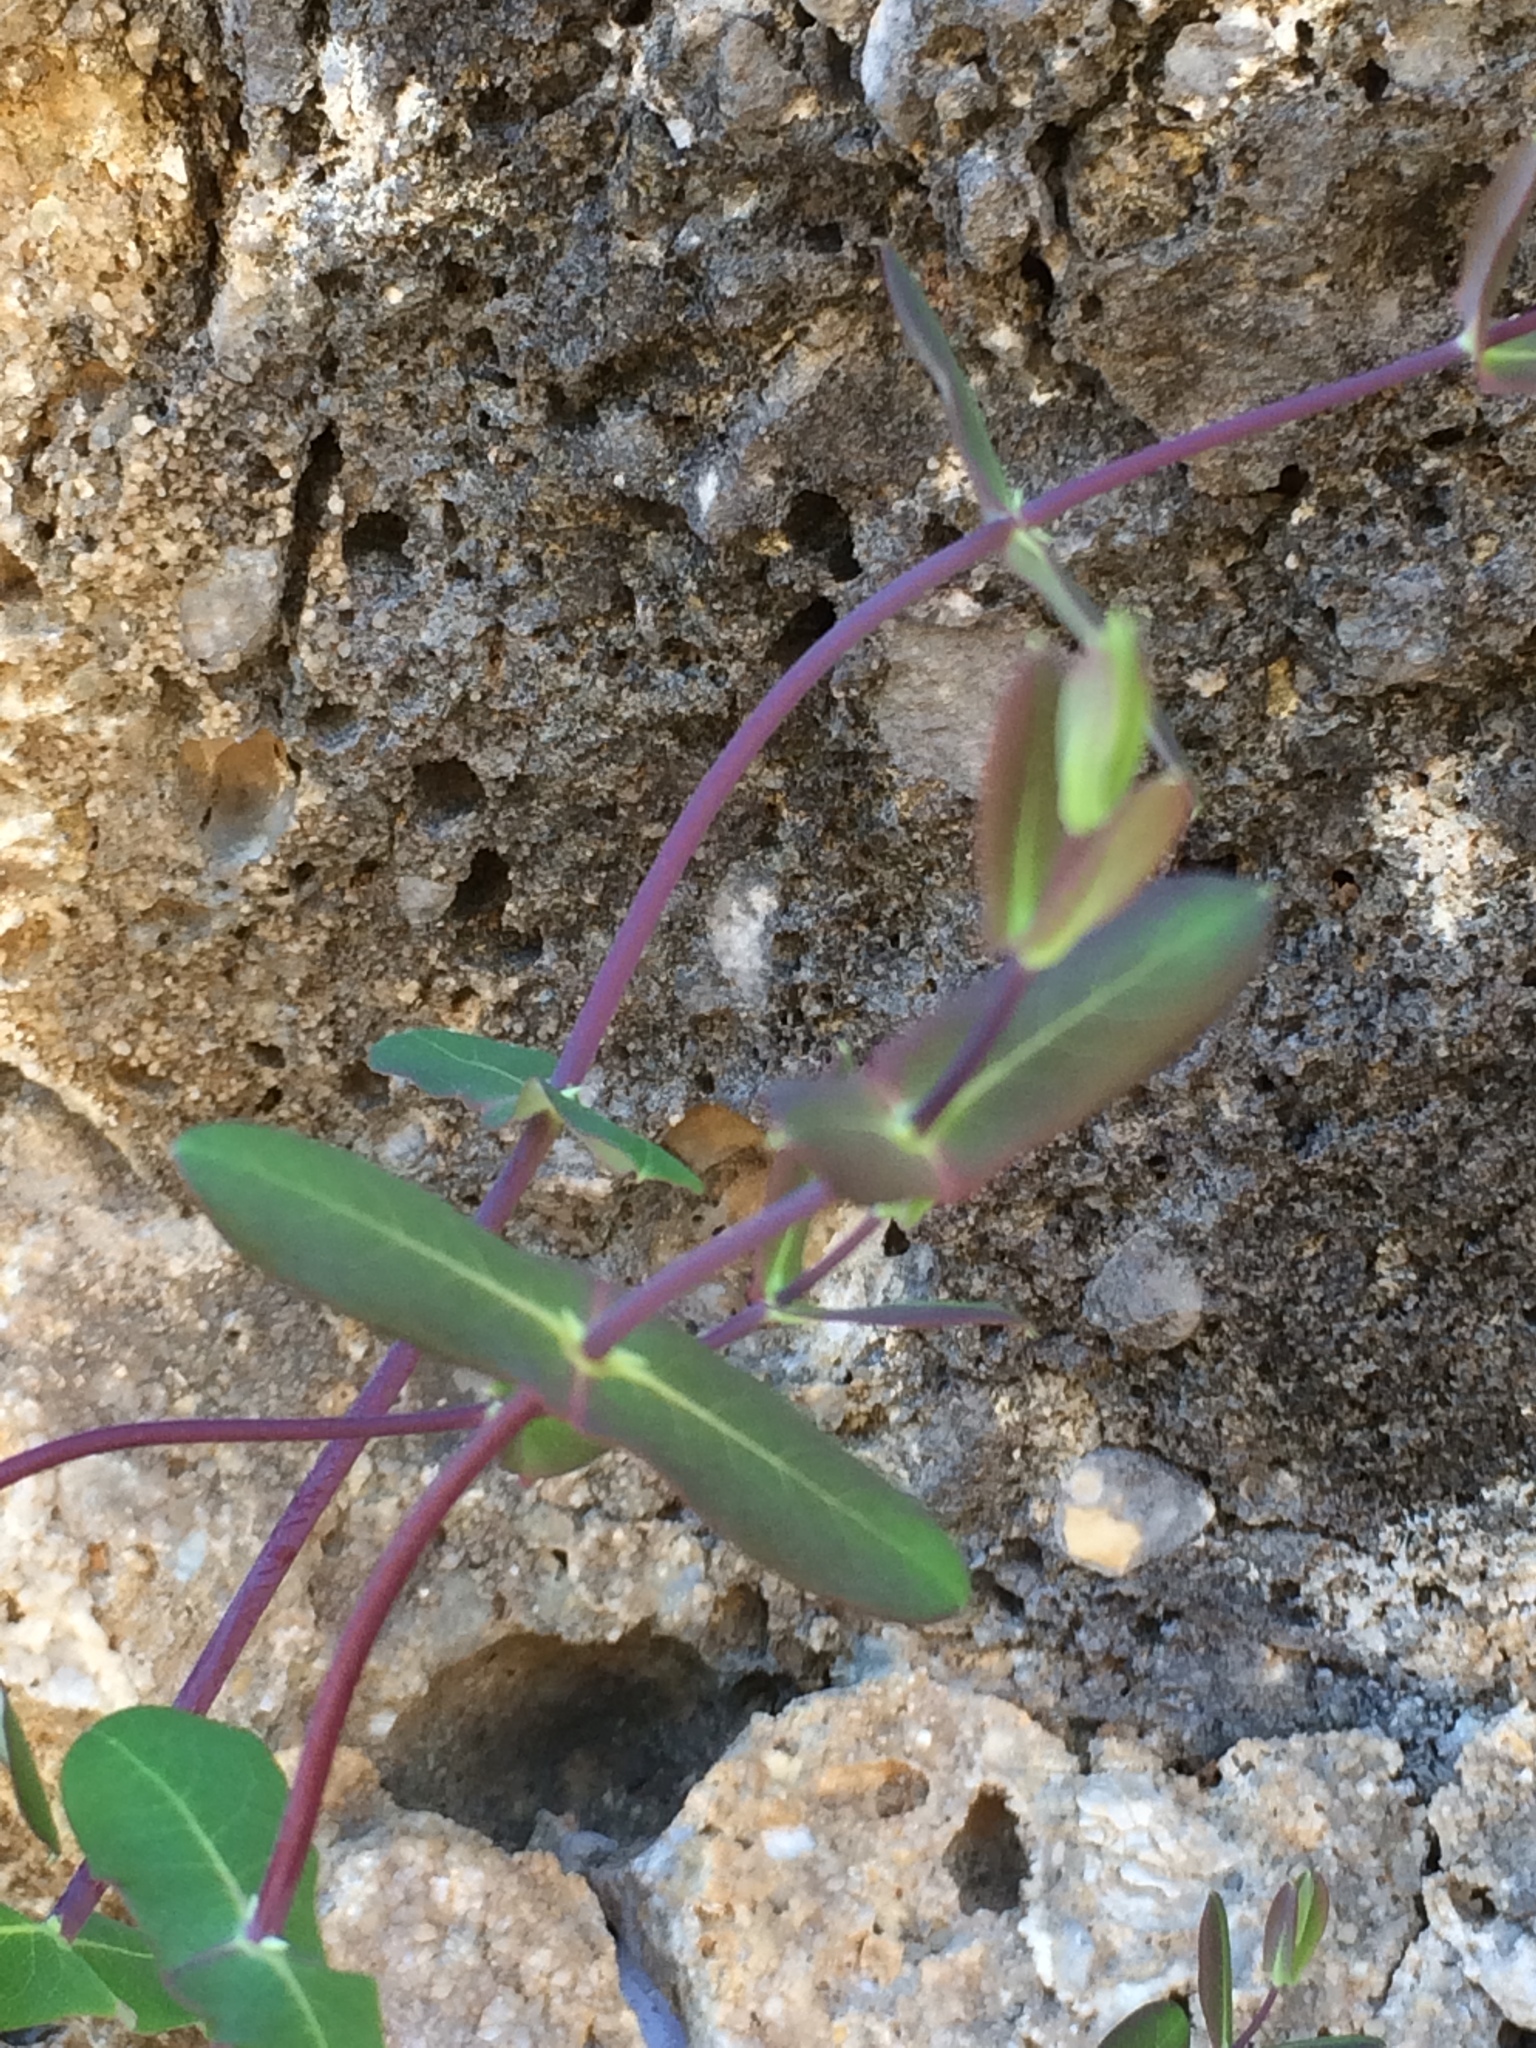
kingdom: Plantae
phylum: Tracheophyta
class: Magnoliopsida
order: Dipsacales
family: Caprifoliaceae
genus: Lonicera
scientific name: Lonicera implexa
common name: Minorca honeysuckle
